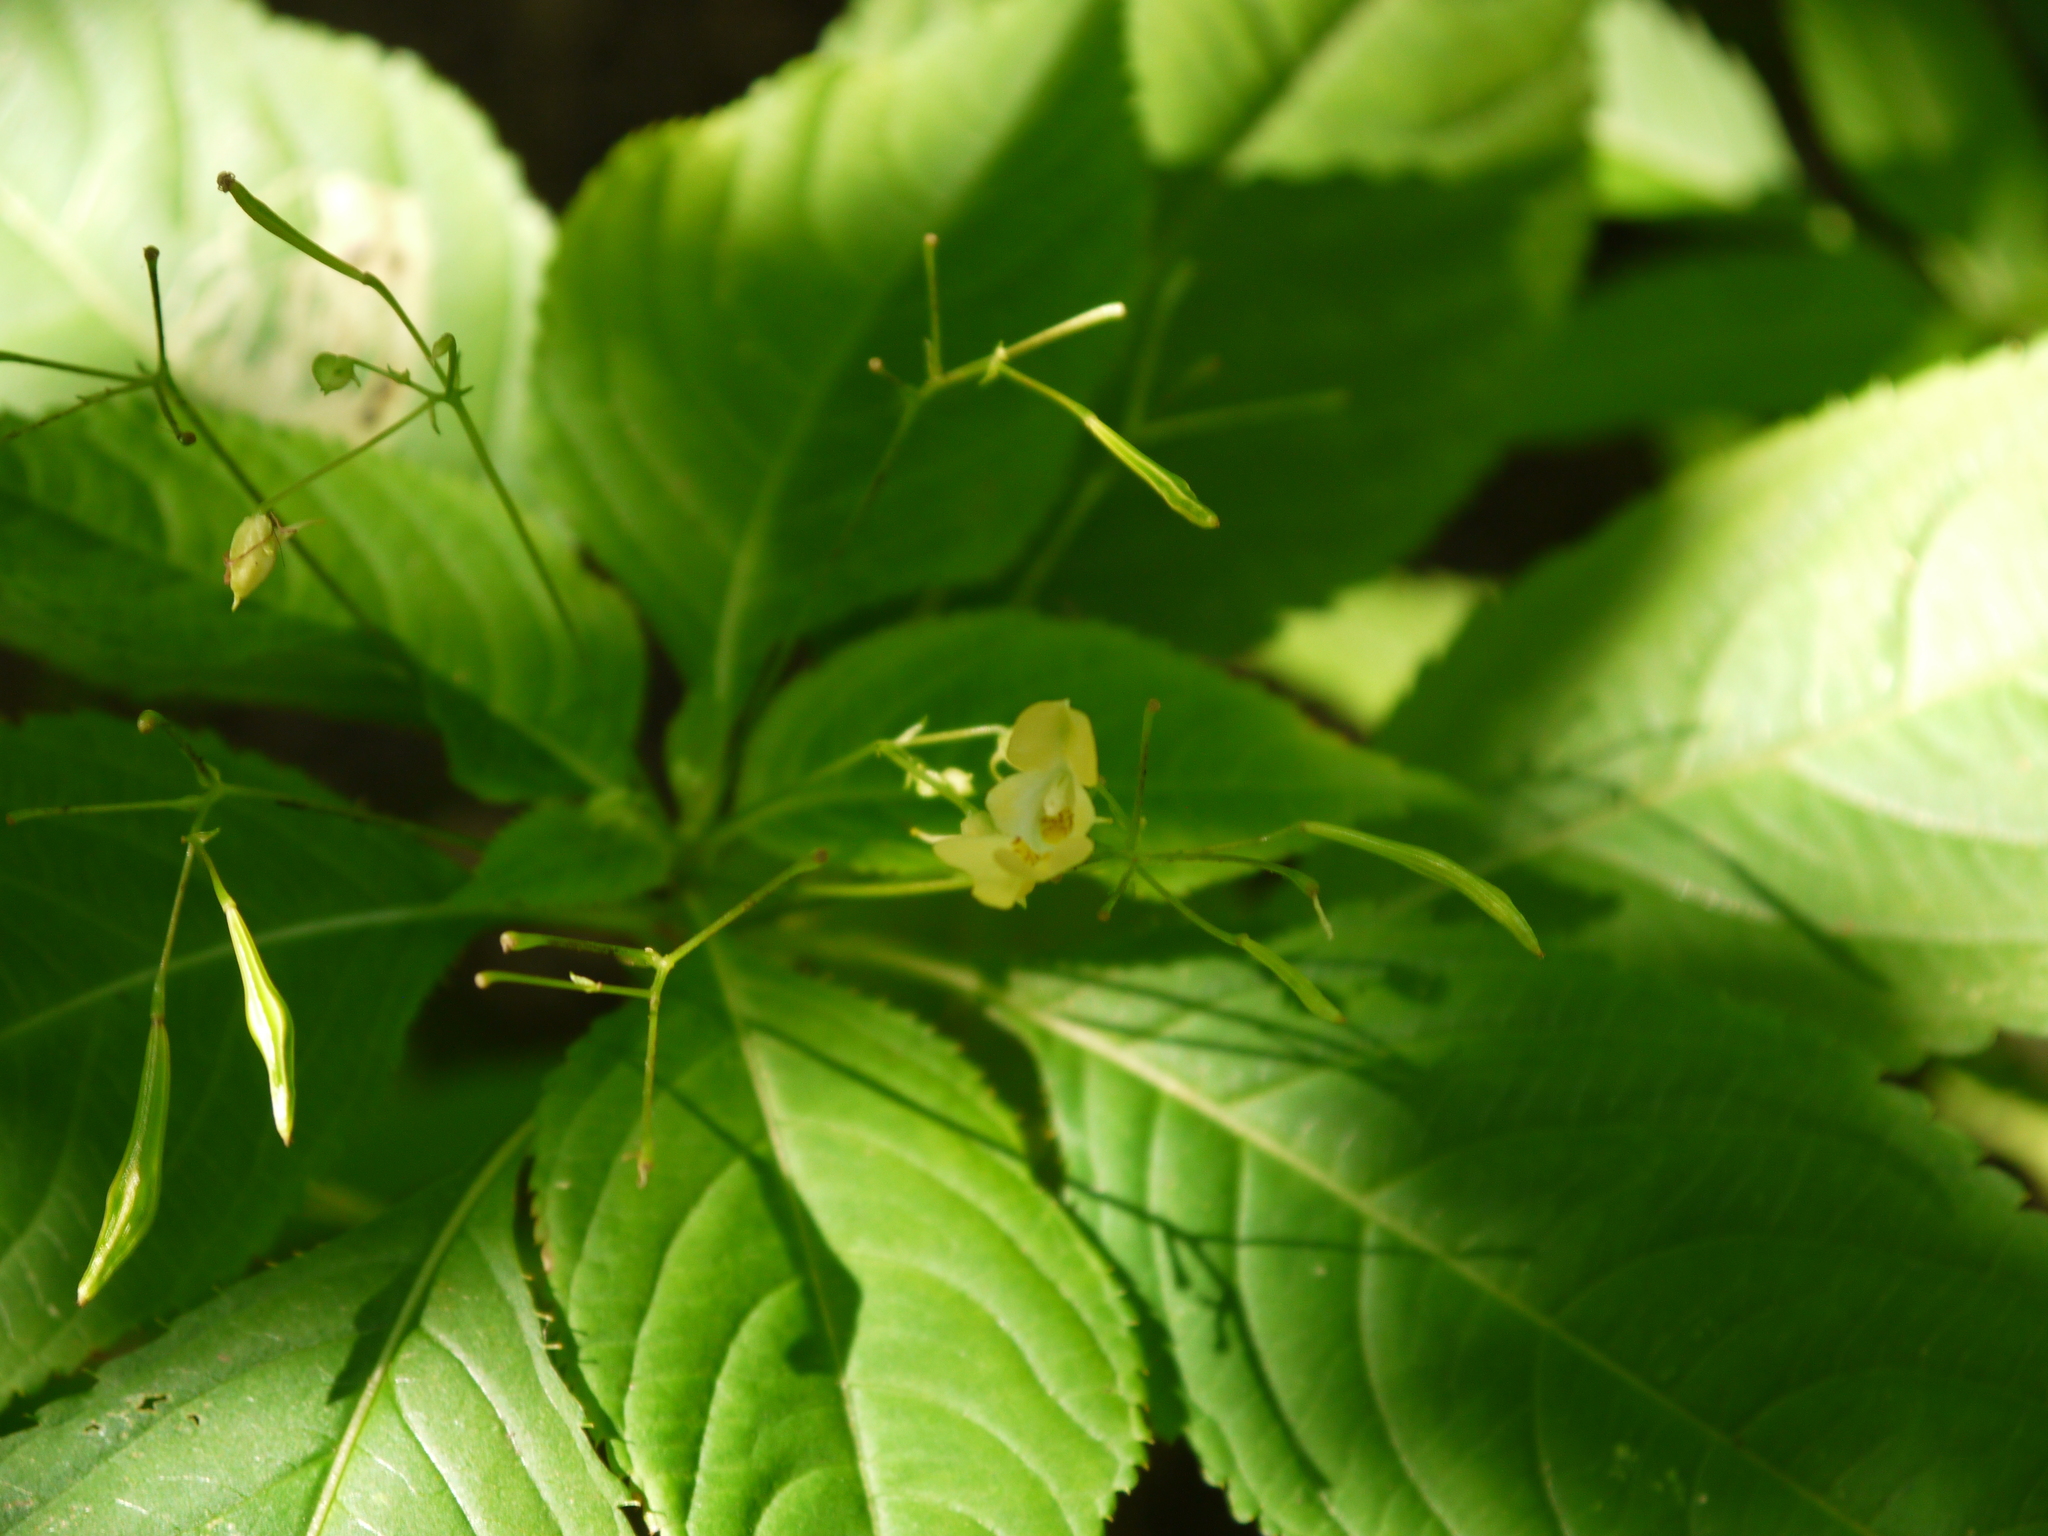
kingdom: Plantae
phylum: Tracheophyta
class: Magnoliopsida
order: Ericales
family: Balsaminaceae
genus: Impatiens
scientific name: Impatiens parviflora
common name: Small balsam
